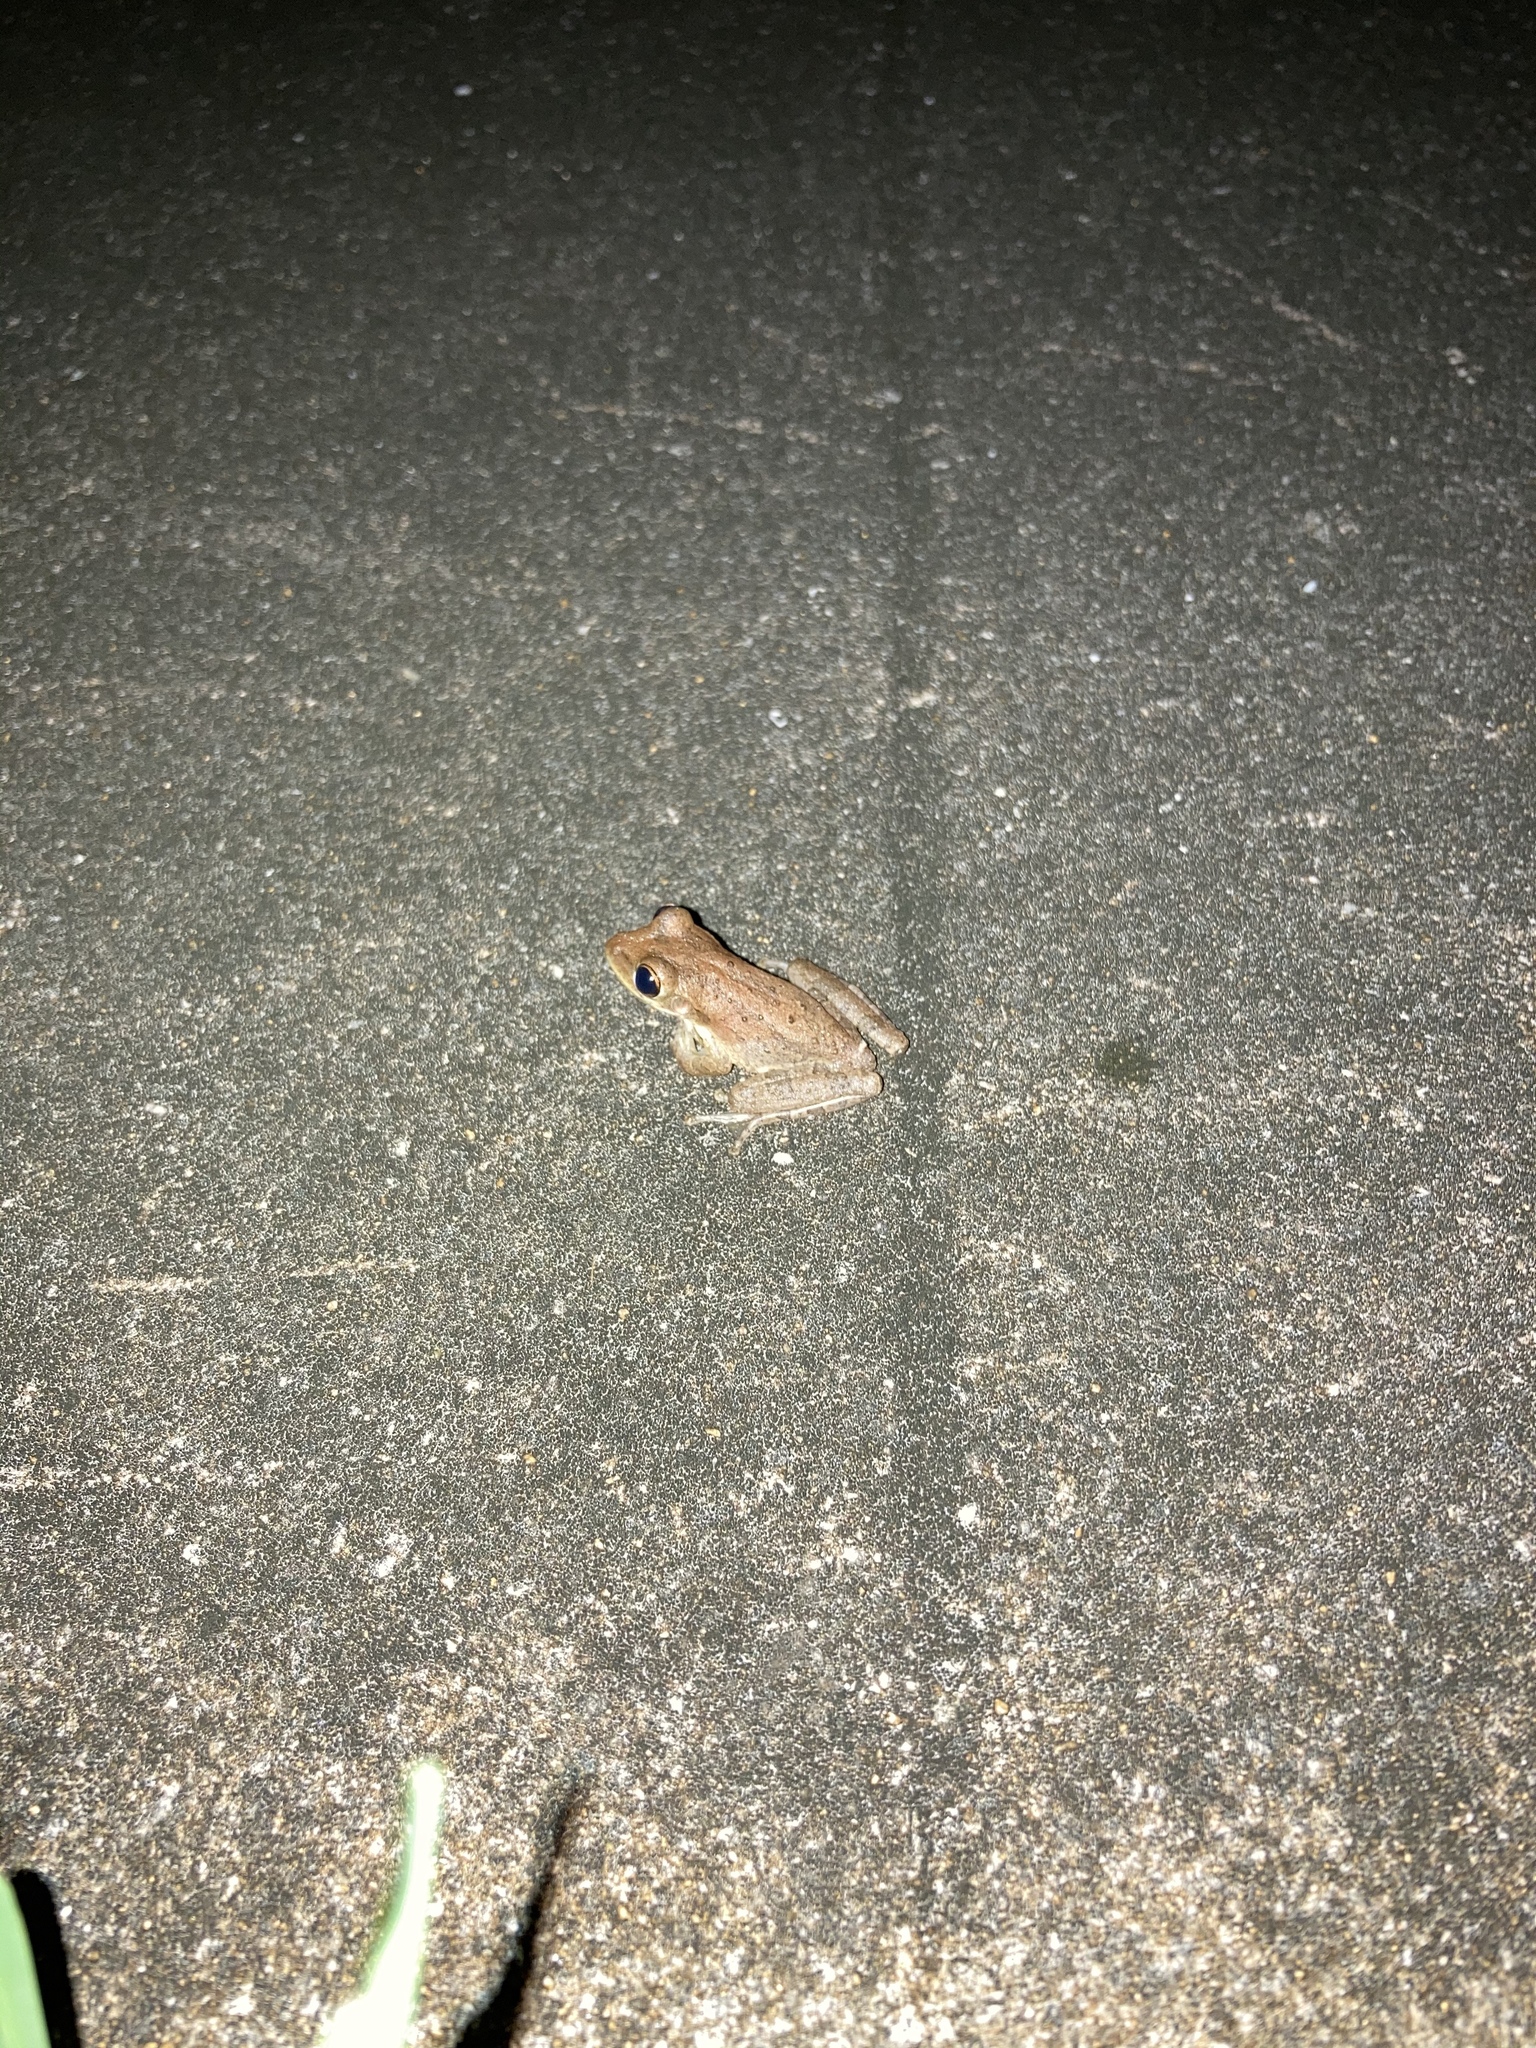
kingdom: Animalia
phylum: Chordata
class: Amphibia
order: Anura
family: Hylidae
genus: Osteopilus
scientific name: Osteopilus septentrionalis
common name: Cuban treefrog
